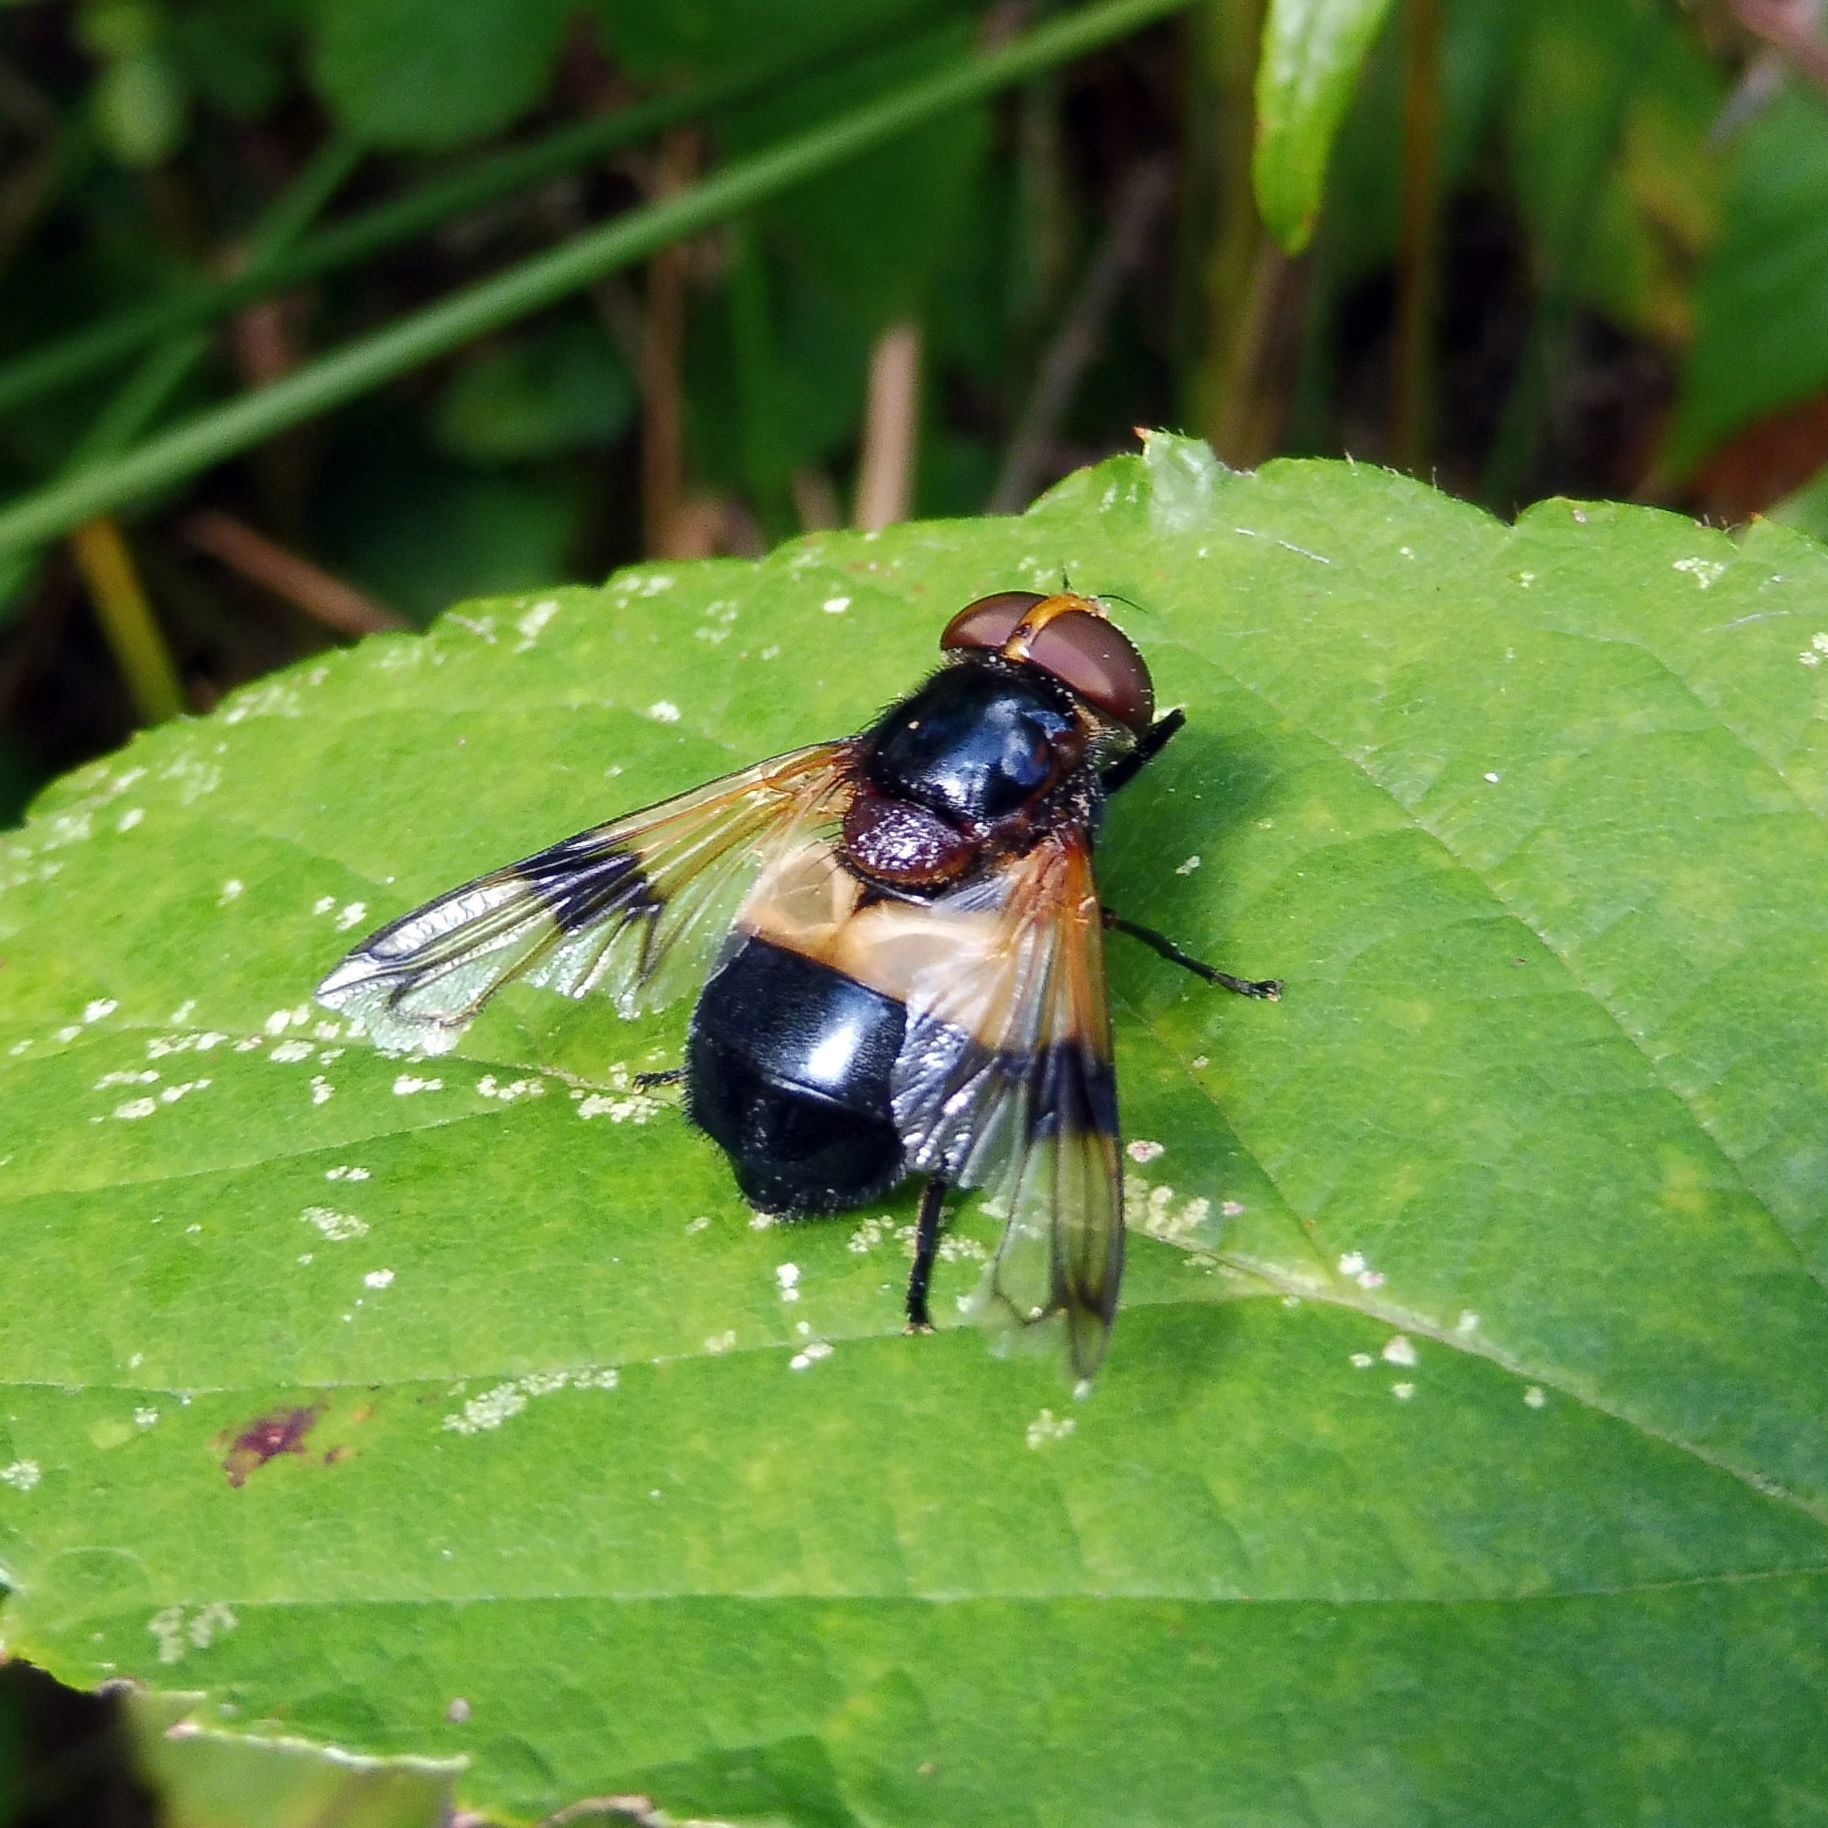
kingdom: Animalia
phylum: Arthropoda
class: Insecta
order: Diptera
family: Syrphidae
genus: Volucella
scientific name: Volucella pellucens
